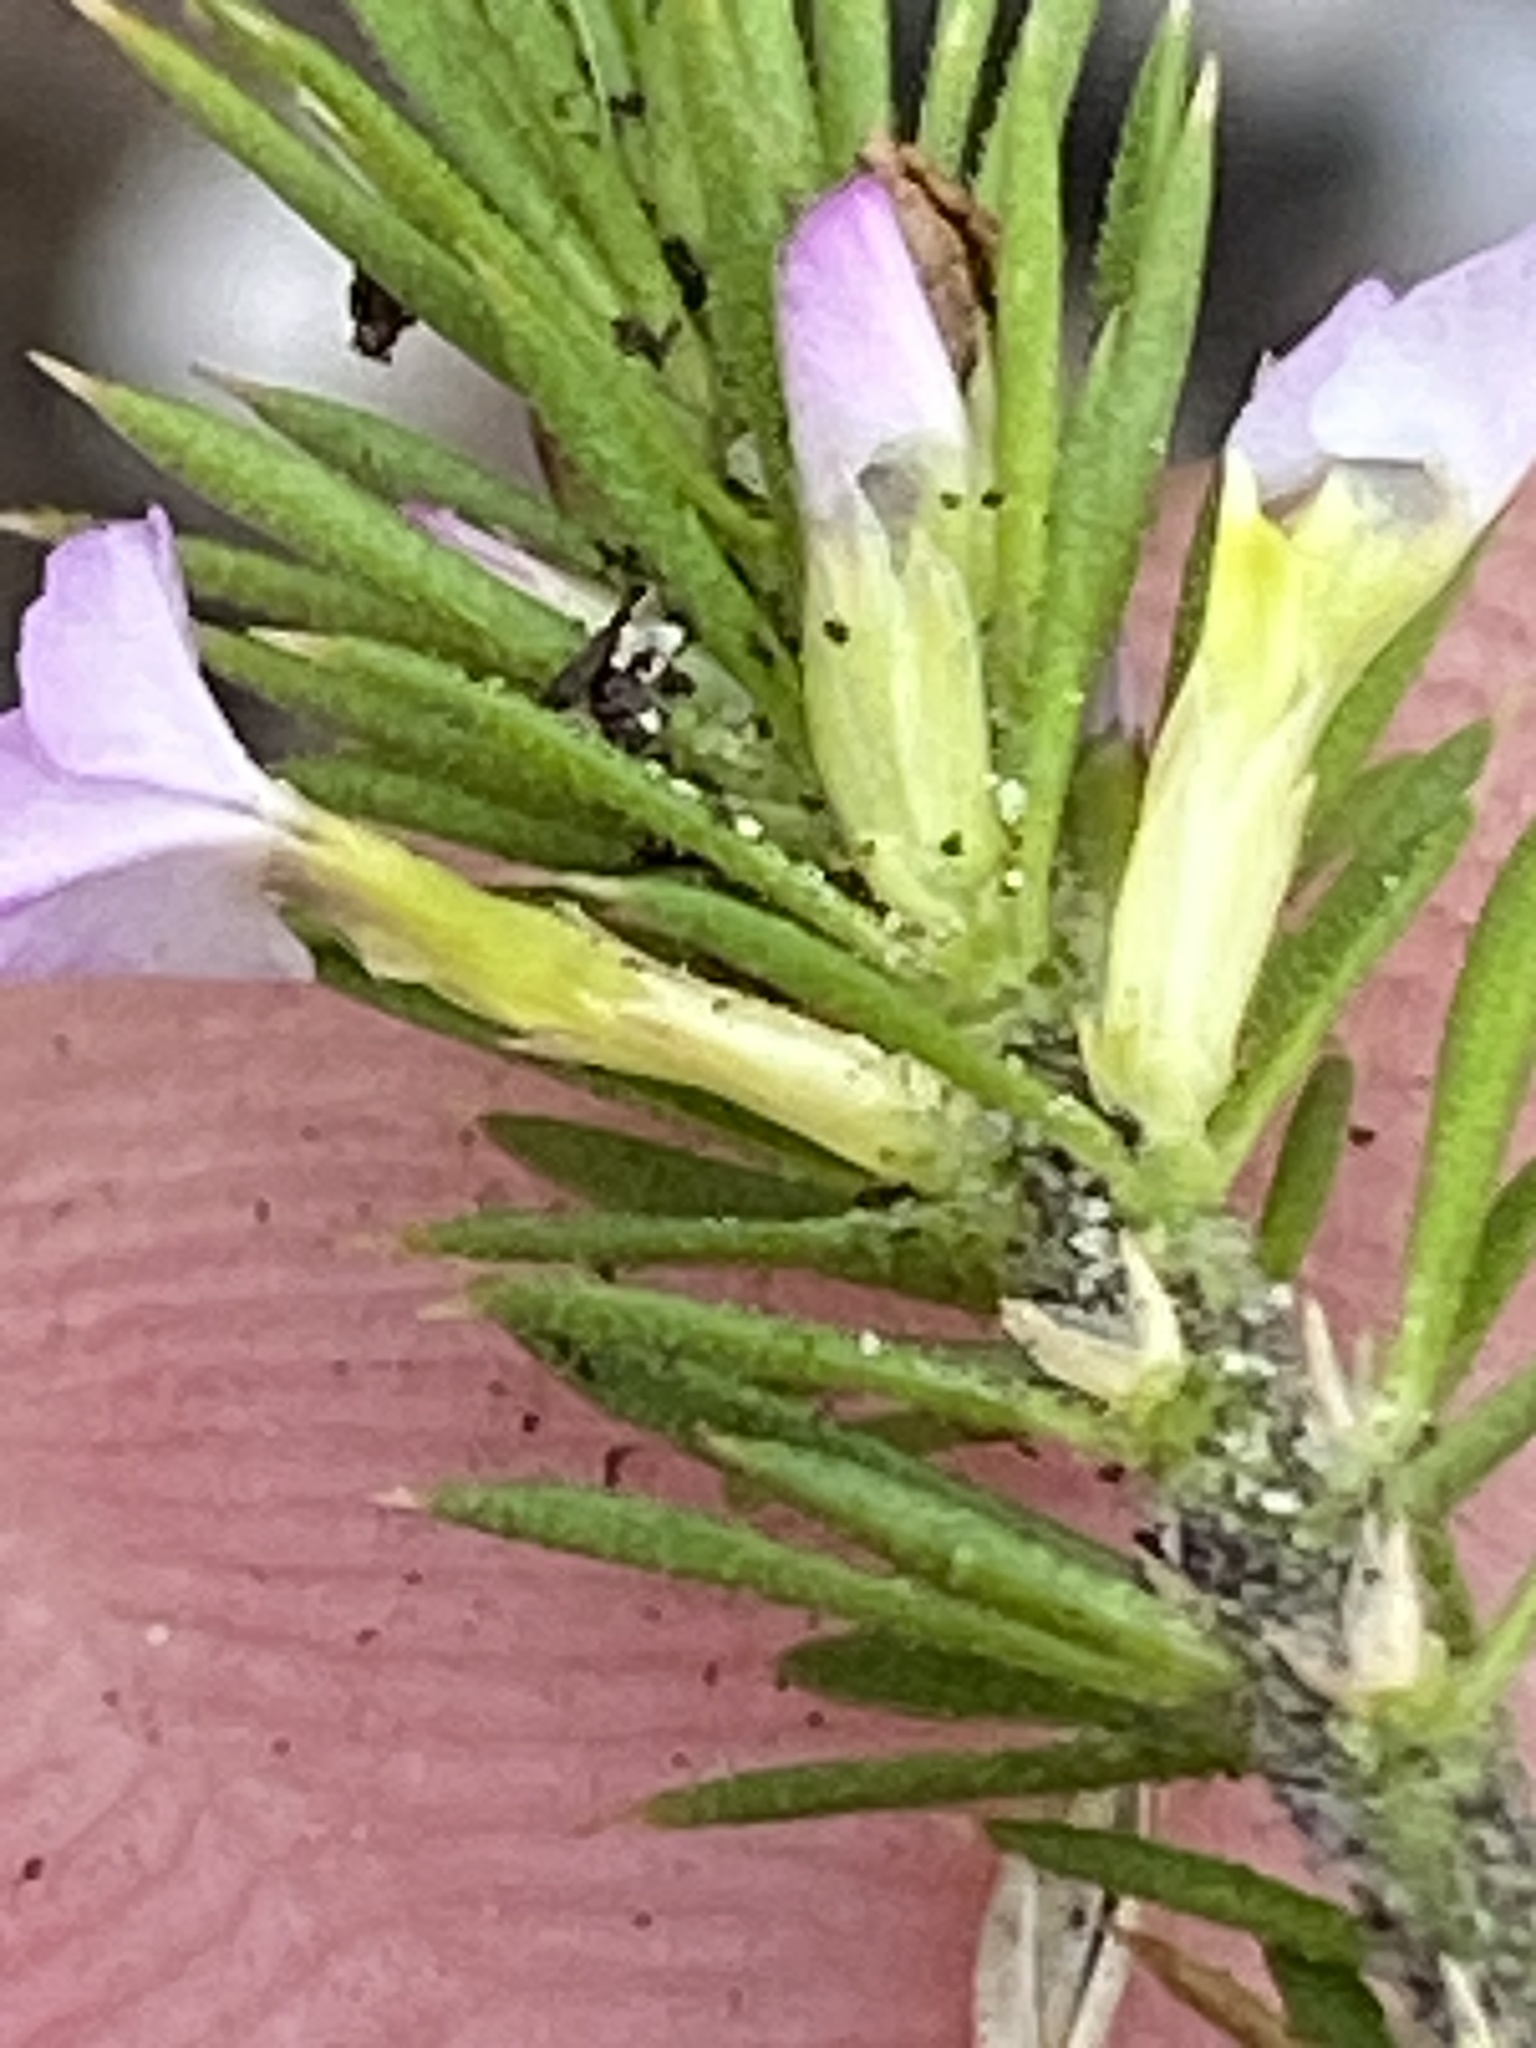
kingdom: Plantae
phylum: Tracheophyta
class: Magnoliopsida
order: Fabales
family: Polygalaceae
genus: Muraltia
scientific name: Muraltia plumosa
